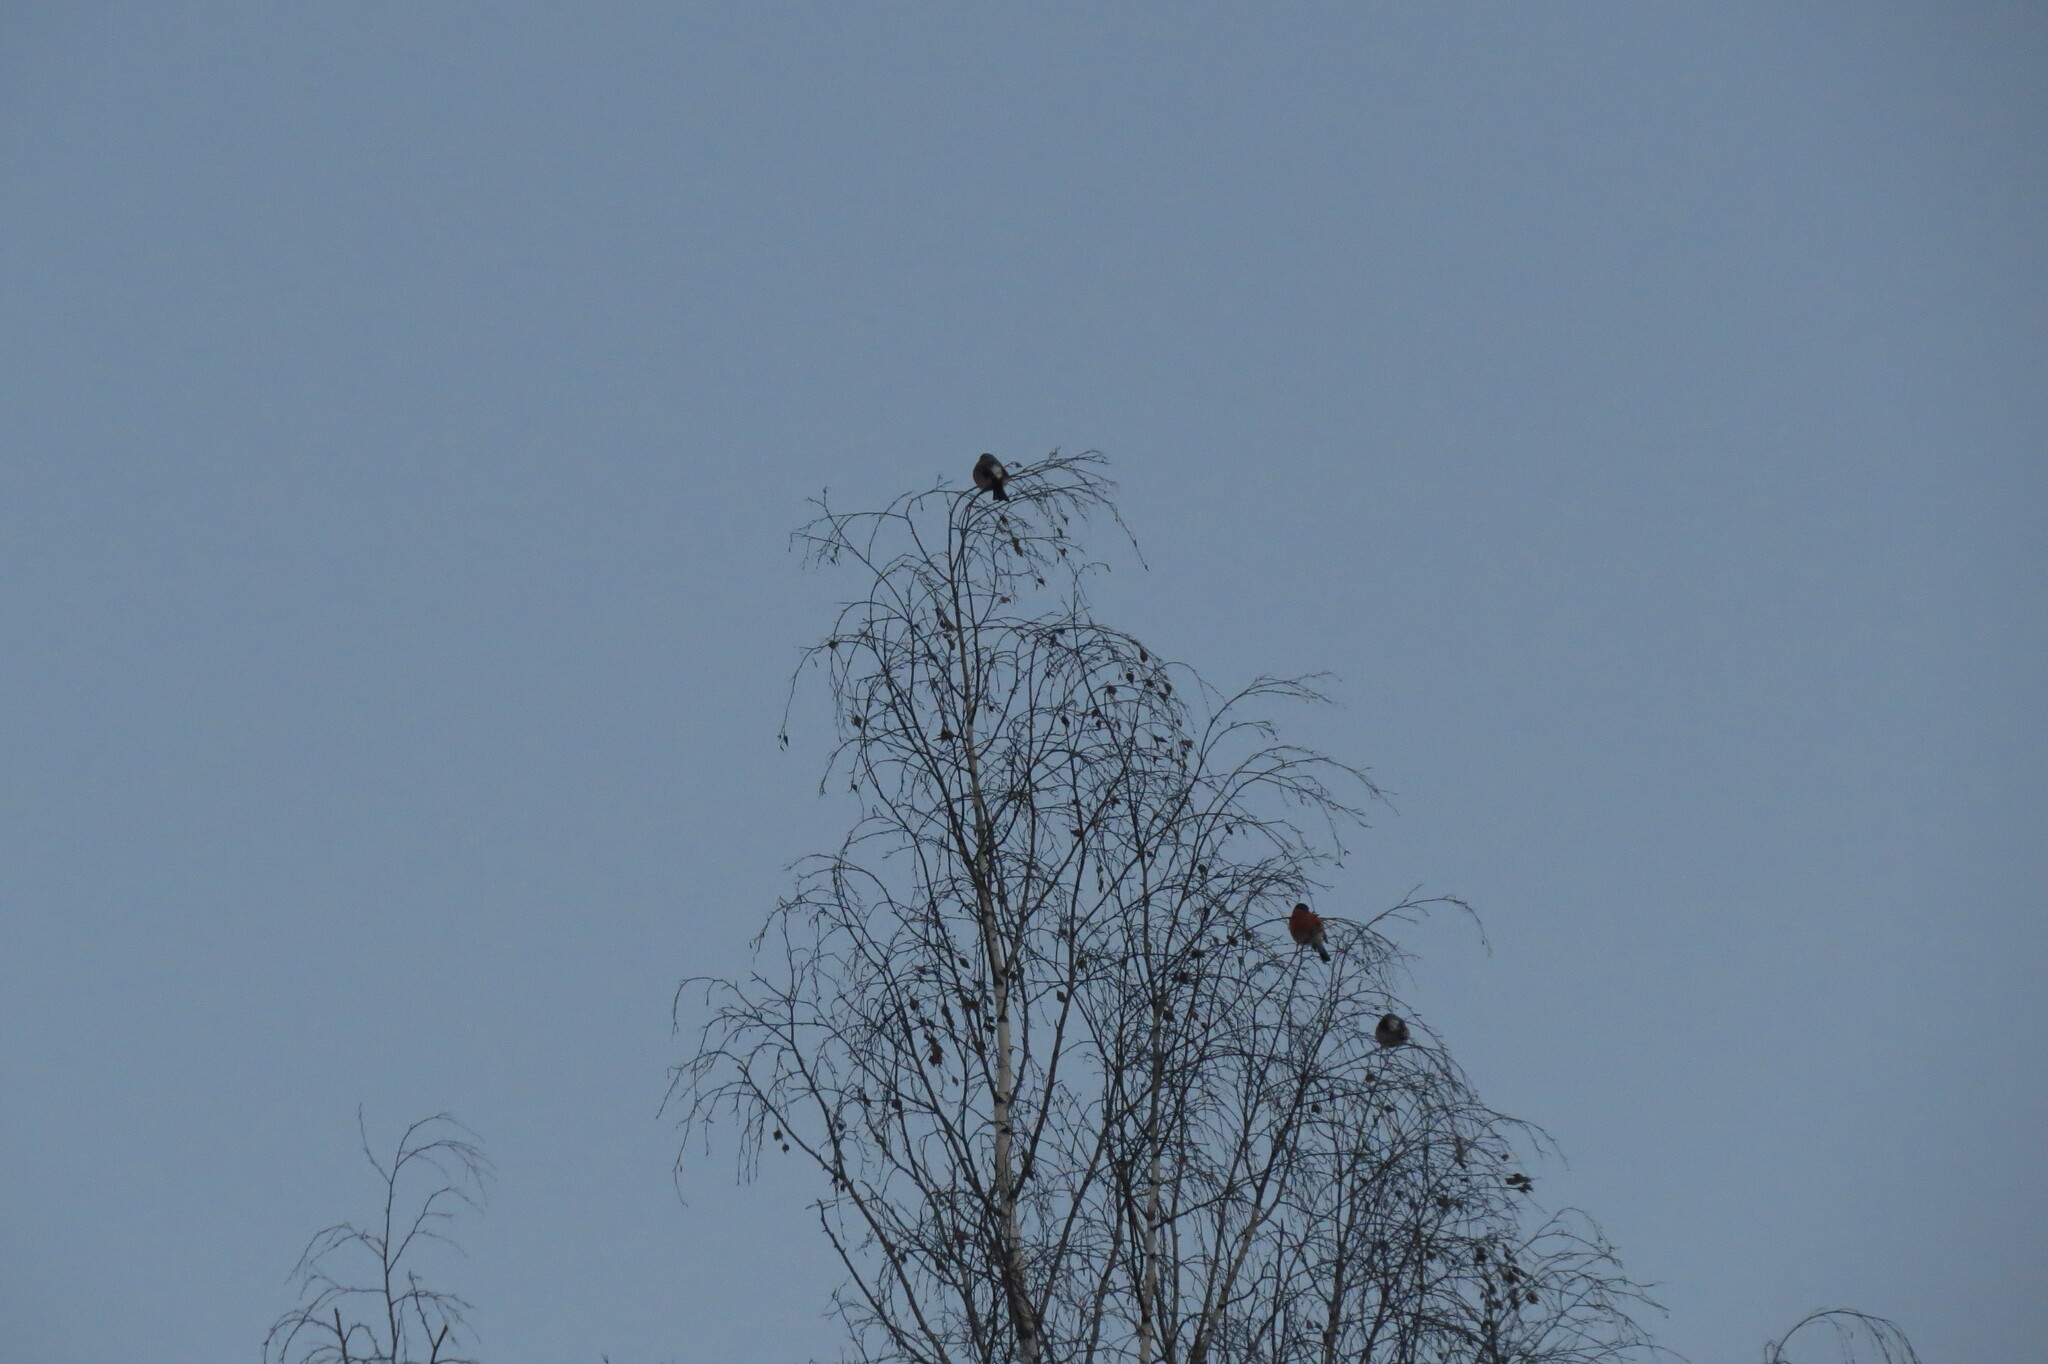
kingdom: Animalia
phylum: Chordata
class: Aves
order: Passeriformes
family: Fringillidae
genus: Pyrrhula
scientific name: Pyrrhula pyrrhula
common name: Eurasian bullfinch
